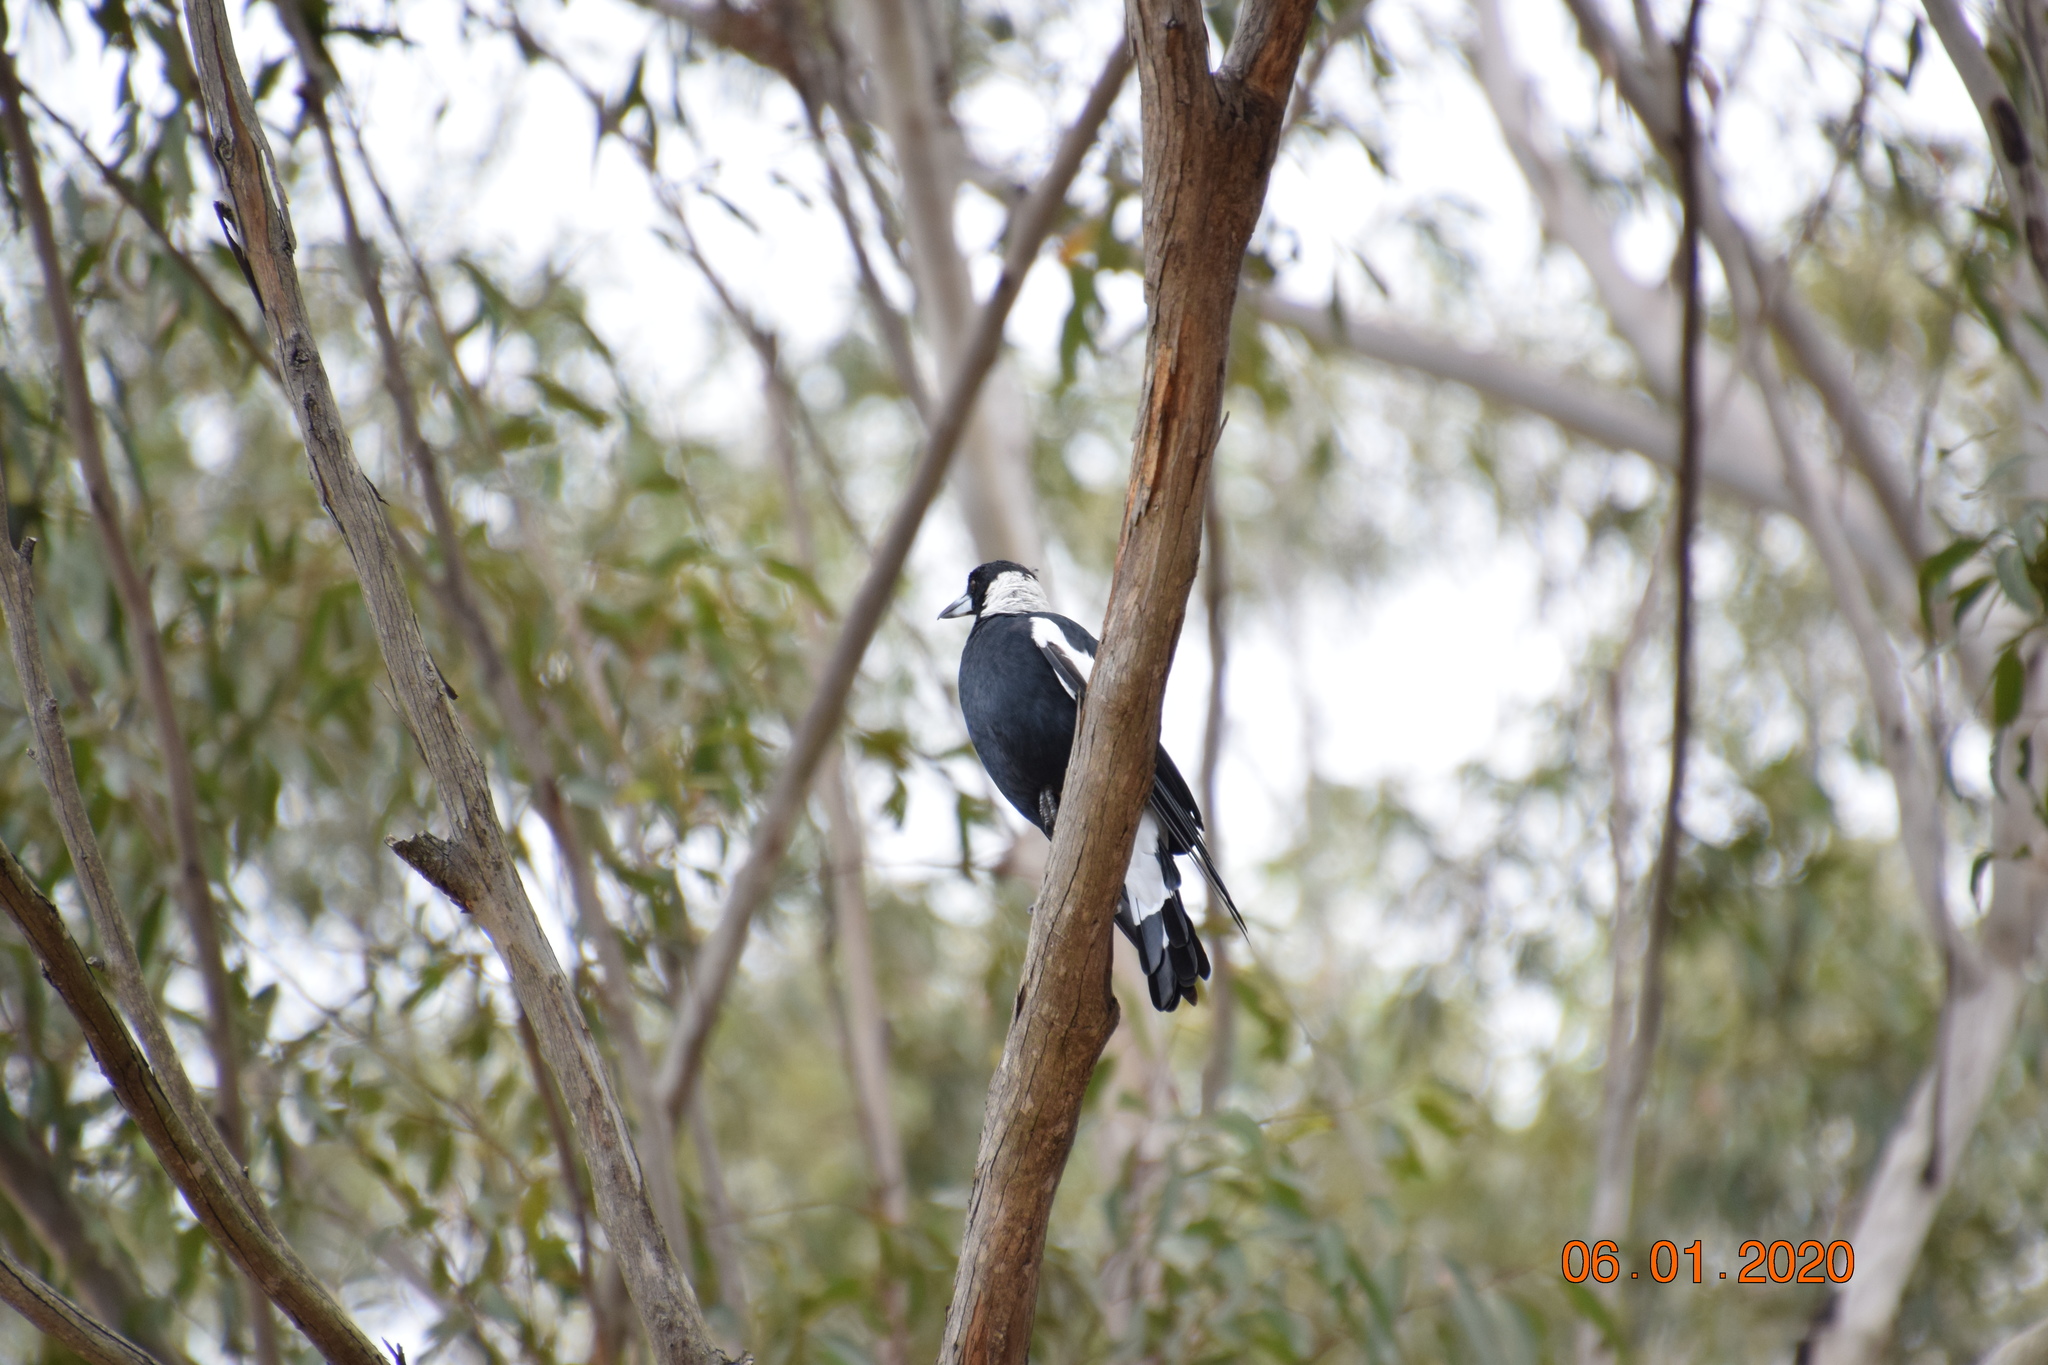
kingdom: Animalia
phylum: Chordata
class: Aves
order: Passeriformes
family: Cracticidae
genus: Gymnorhina
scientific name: Gymnorhina tibicen
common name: Australian magpie
